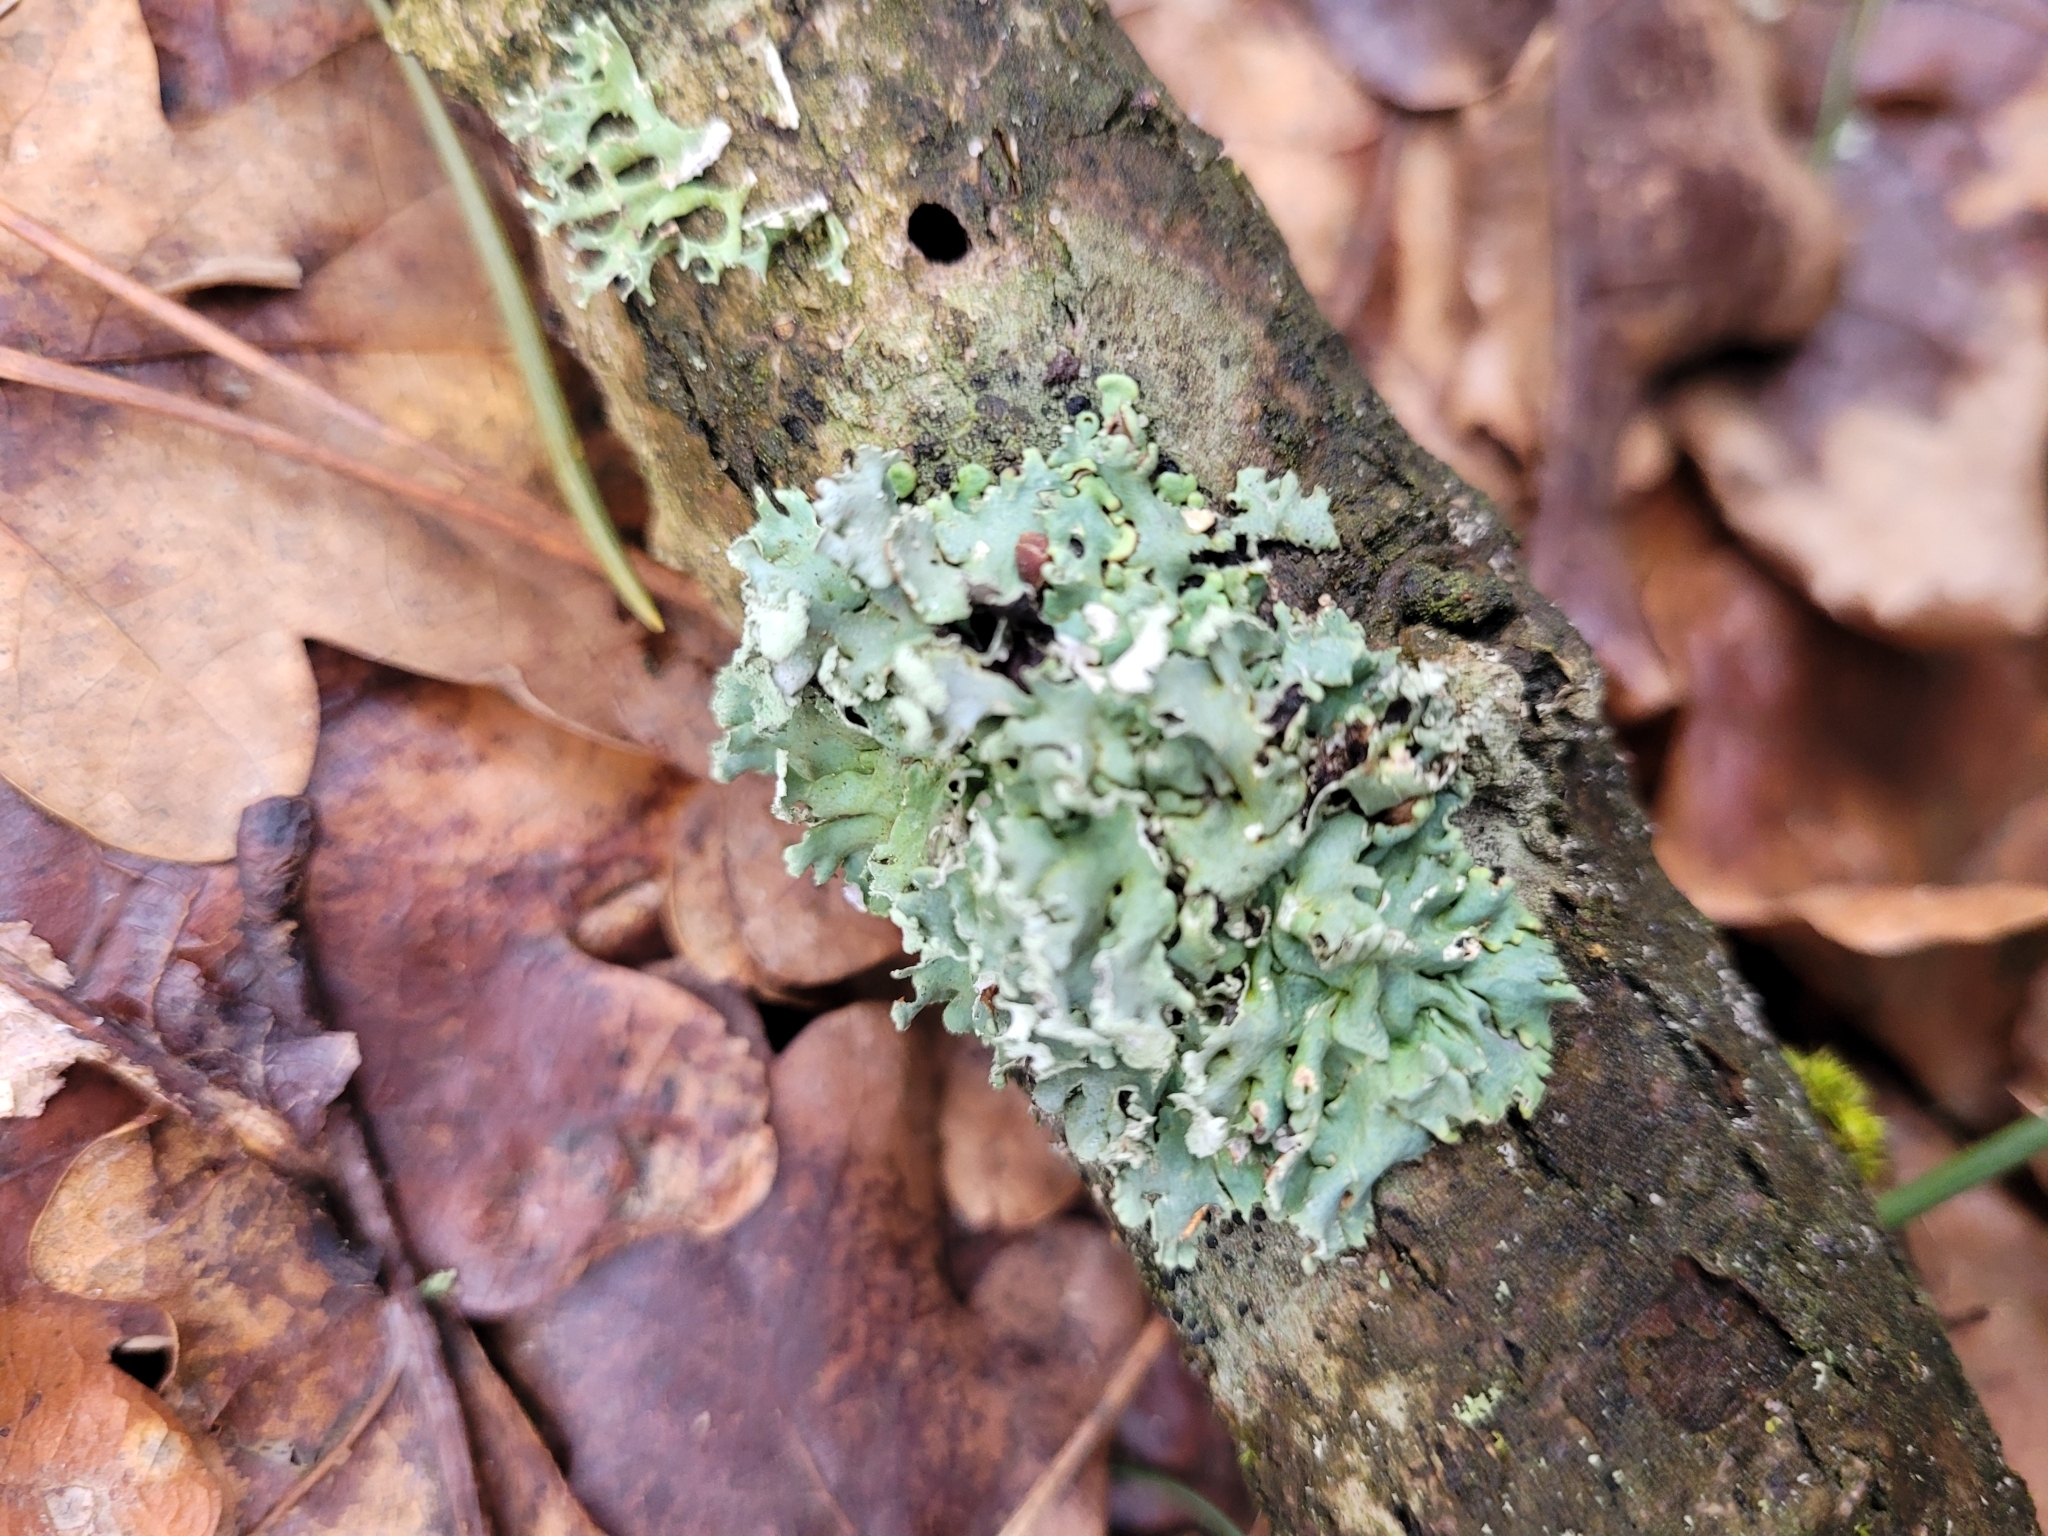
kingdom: Fungi
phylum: Ascomycota
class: Lecanoromycetes
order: Lecanorales
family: Parmeliaceae
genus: Hypogymnia
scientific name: Hypogymnia physodes
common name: Dark crottle
